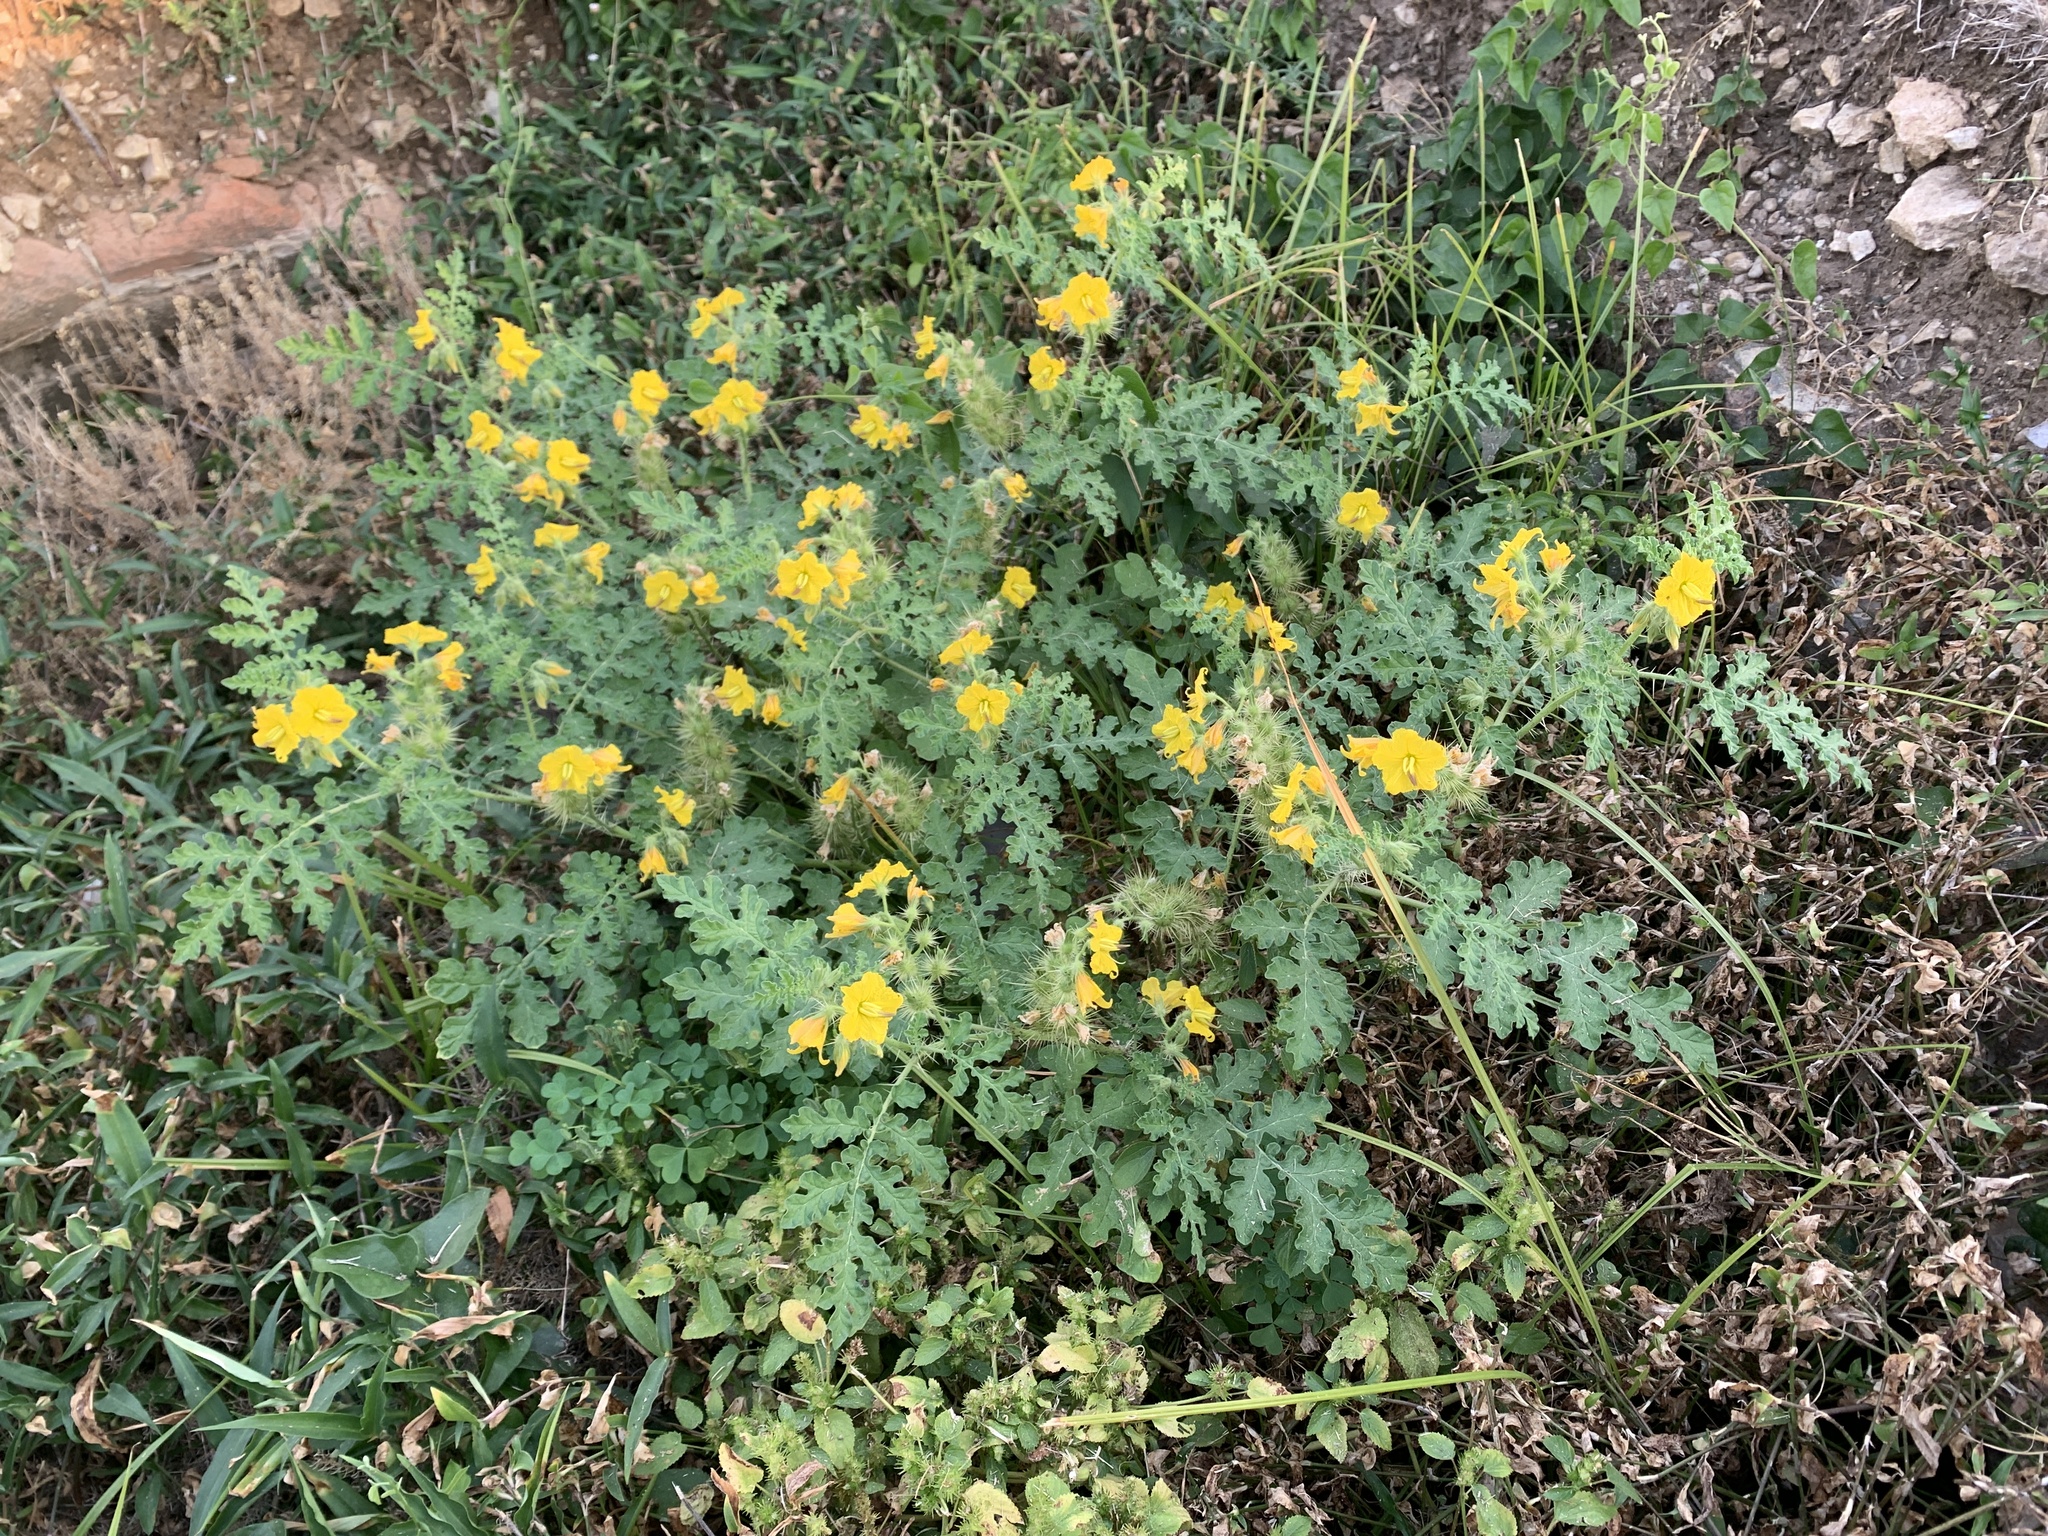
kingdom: Plantae
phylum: Tracheophyta
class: Magnoliopsida
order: Solanales
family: Solanaceae
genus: Solanum
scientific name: Solanum angustifolium
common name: Buffalobur nightshade
